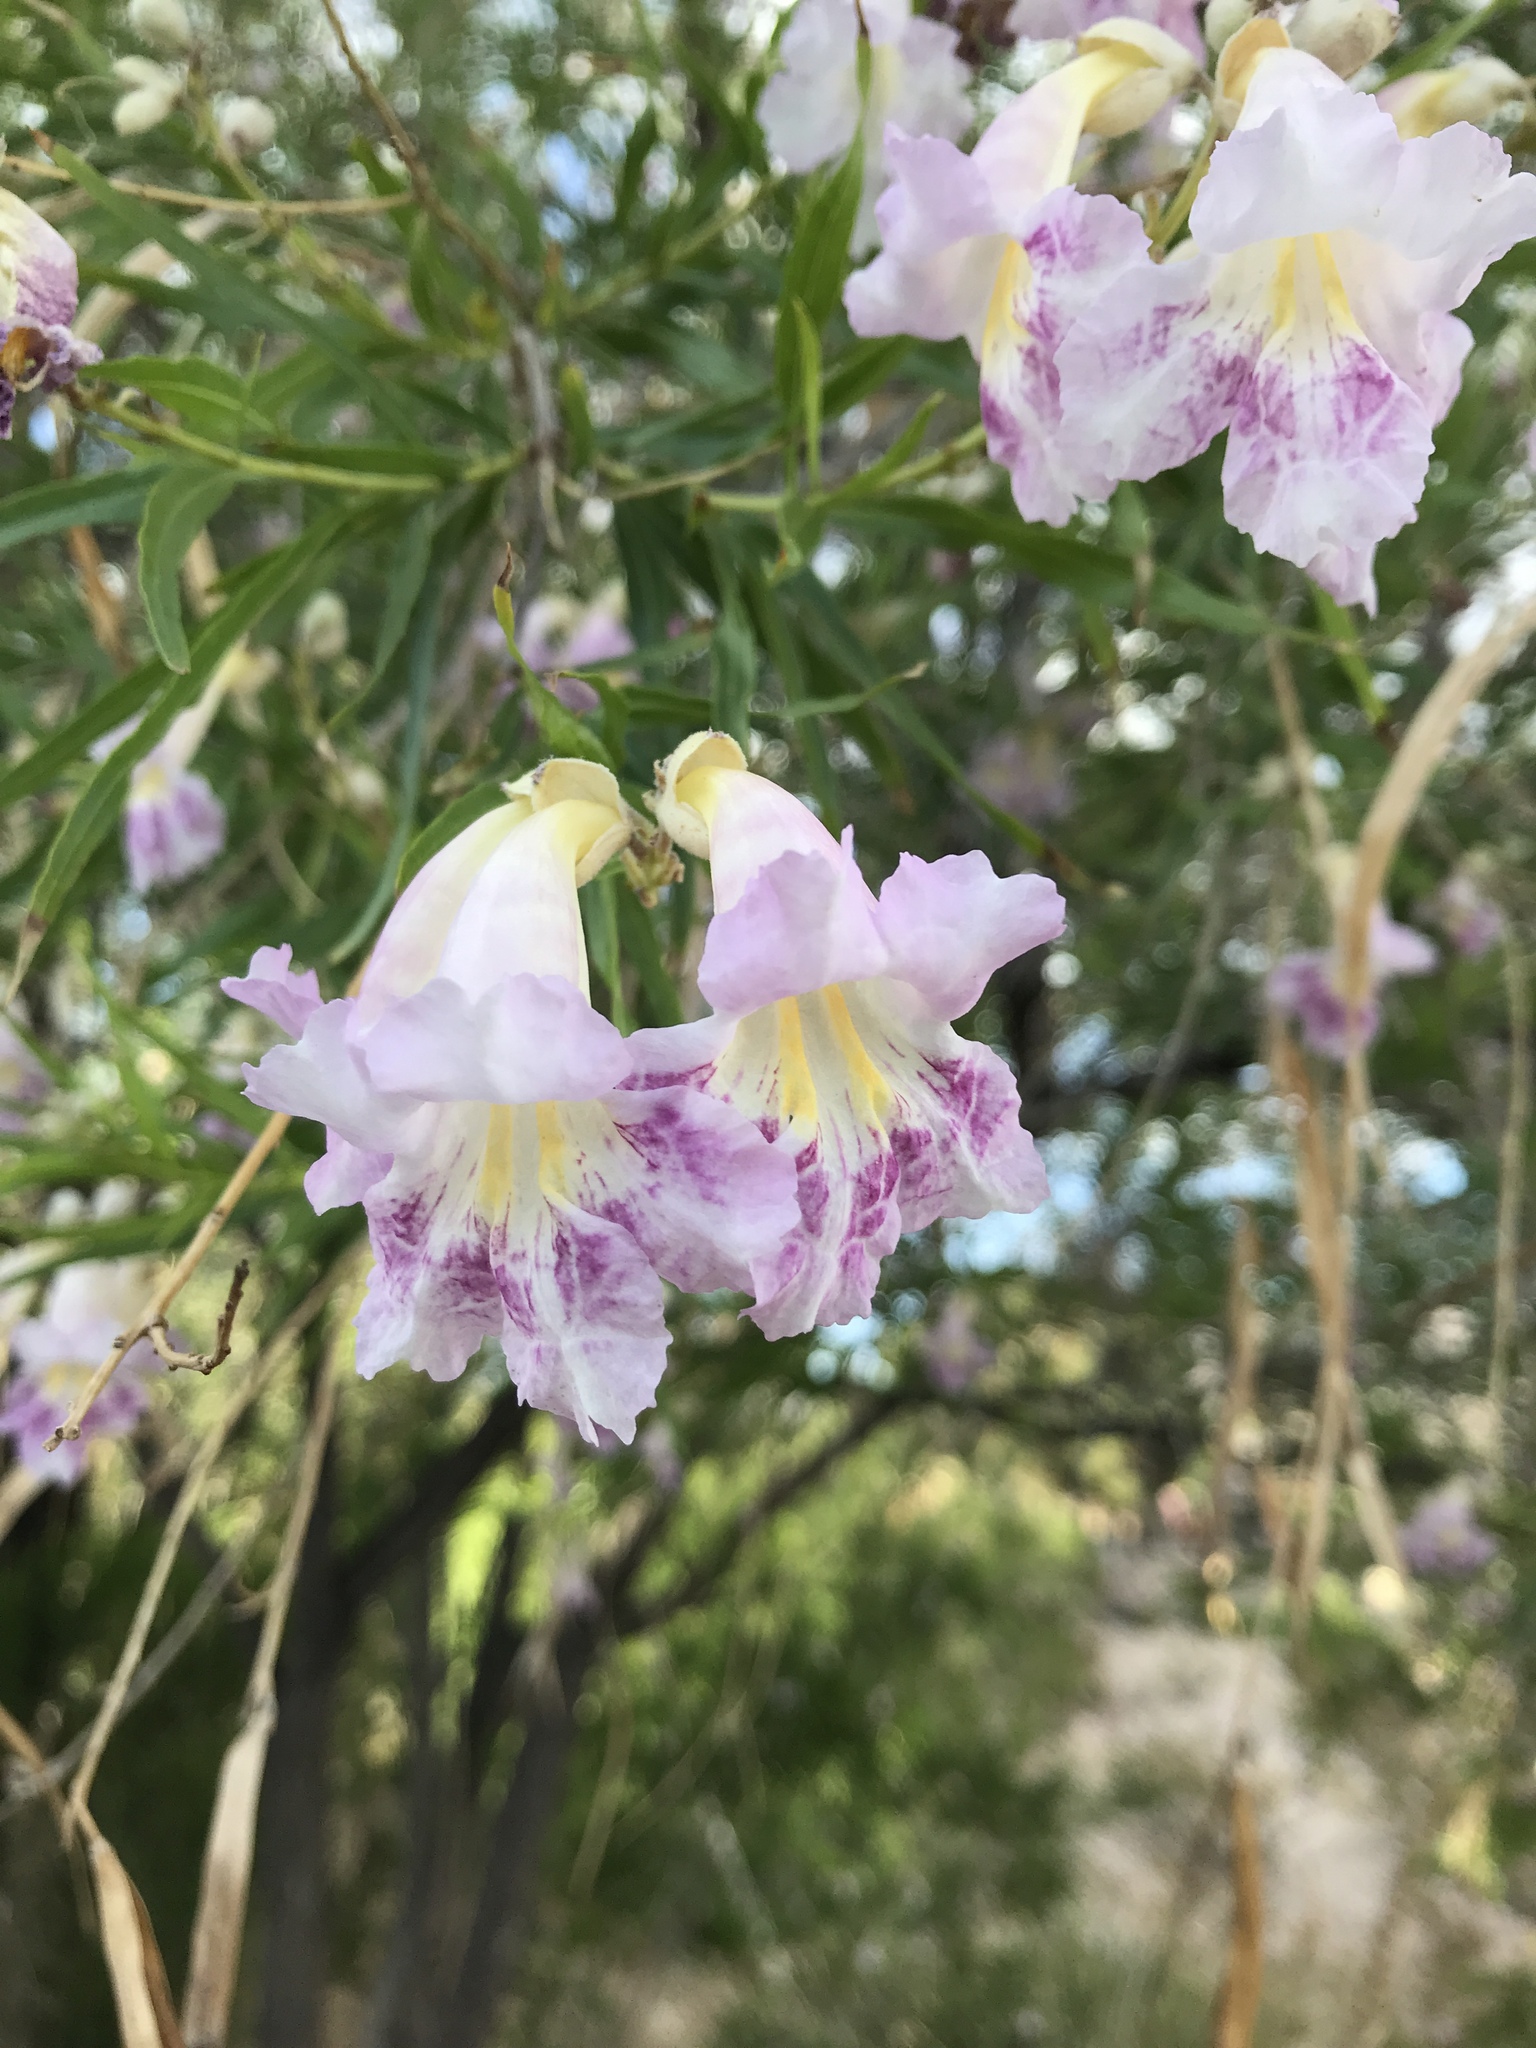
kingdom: Plantae
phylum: Tracheophyta
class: Magnoliopsida
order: Lamiales
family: Bignoniaceae
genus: Chilopsis
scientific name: Chilopsis linearis
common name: Desert-willow
